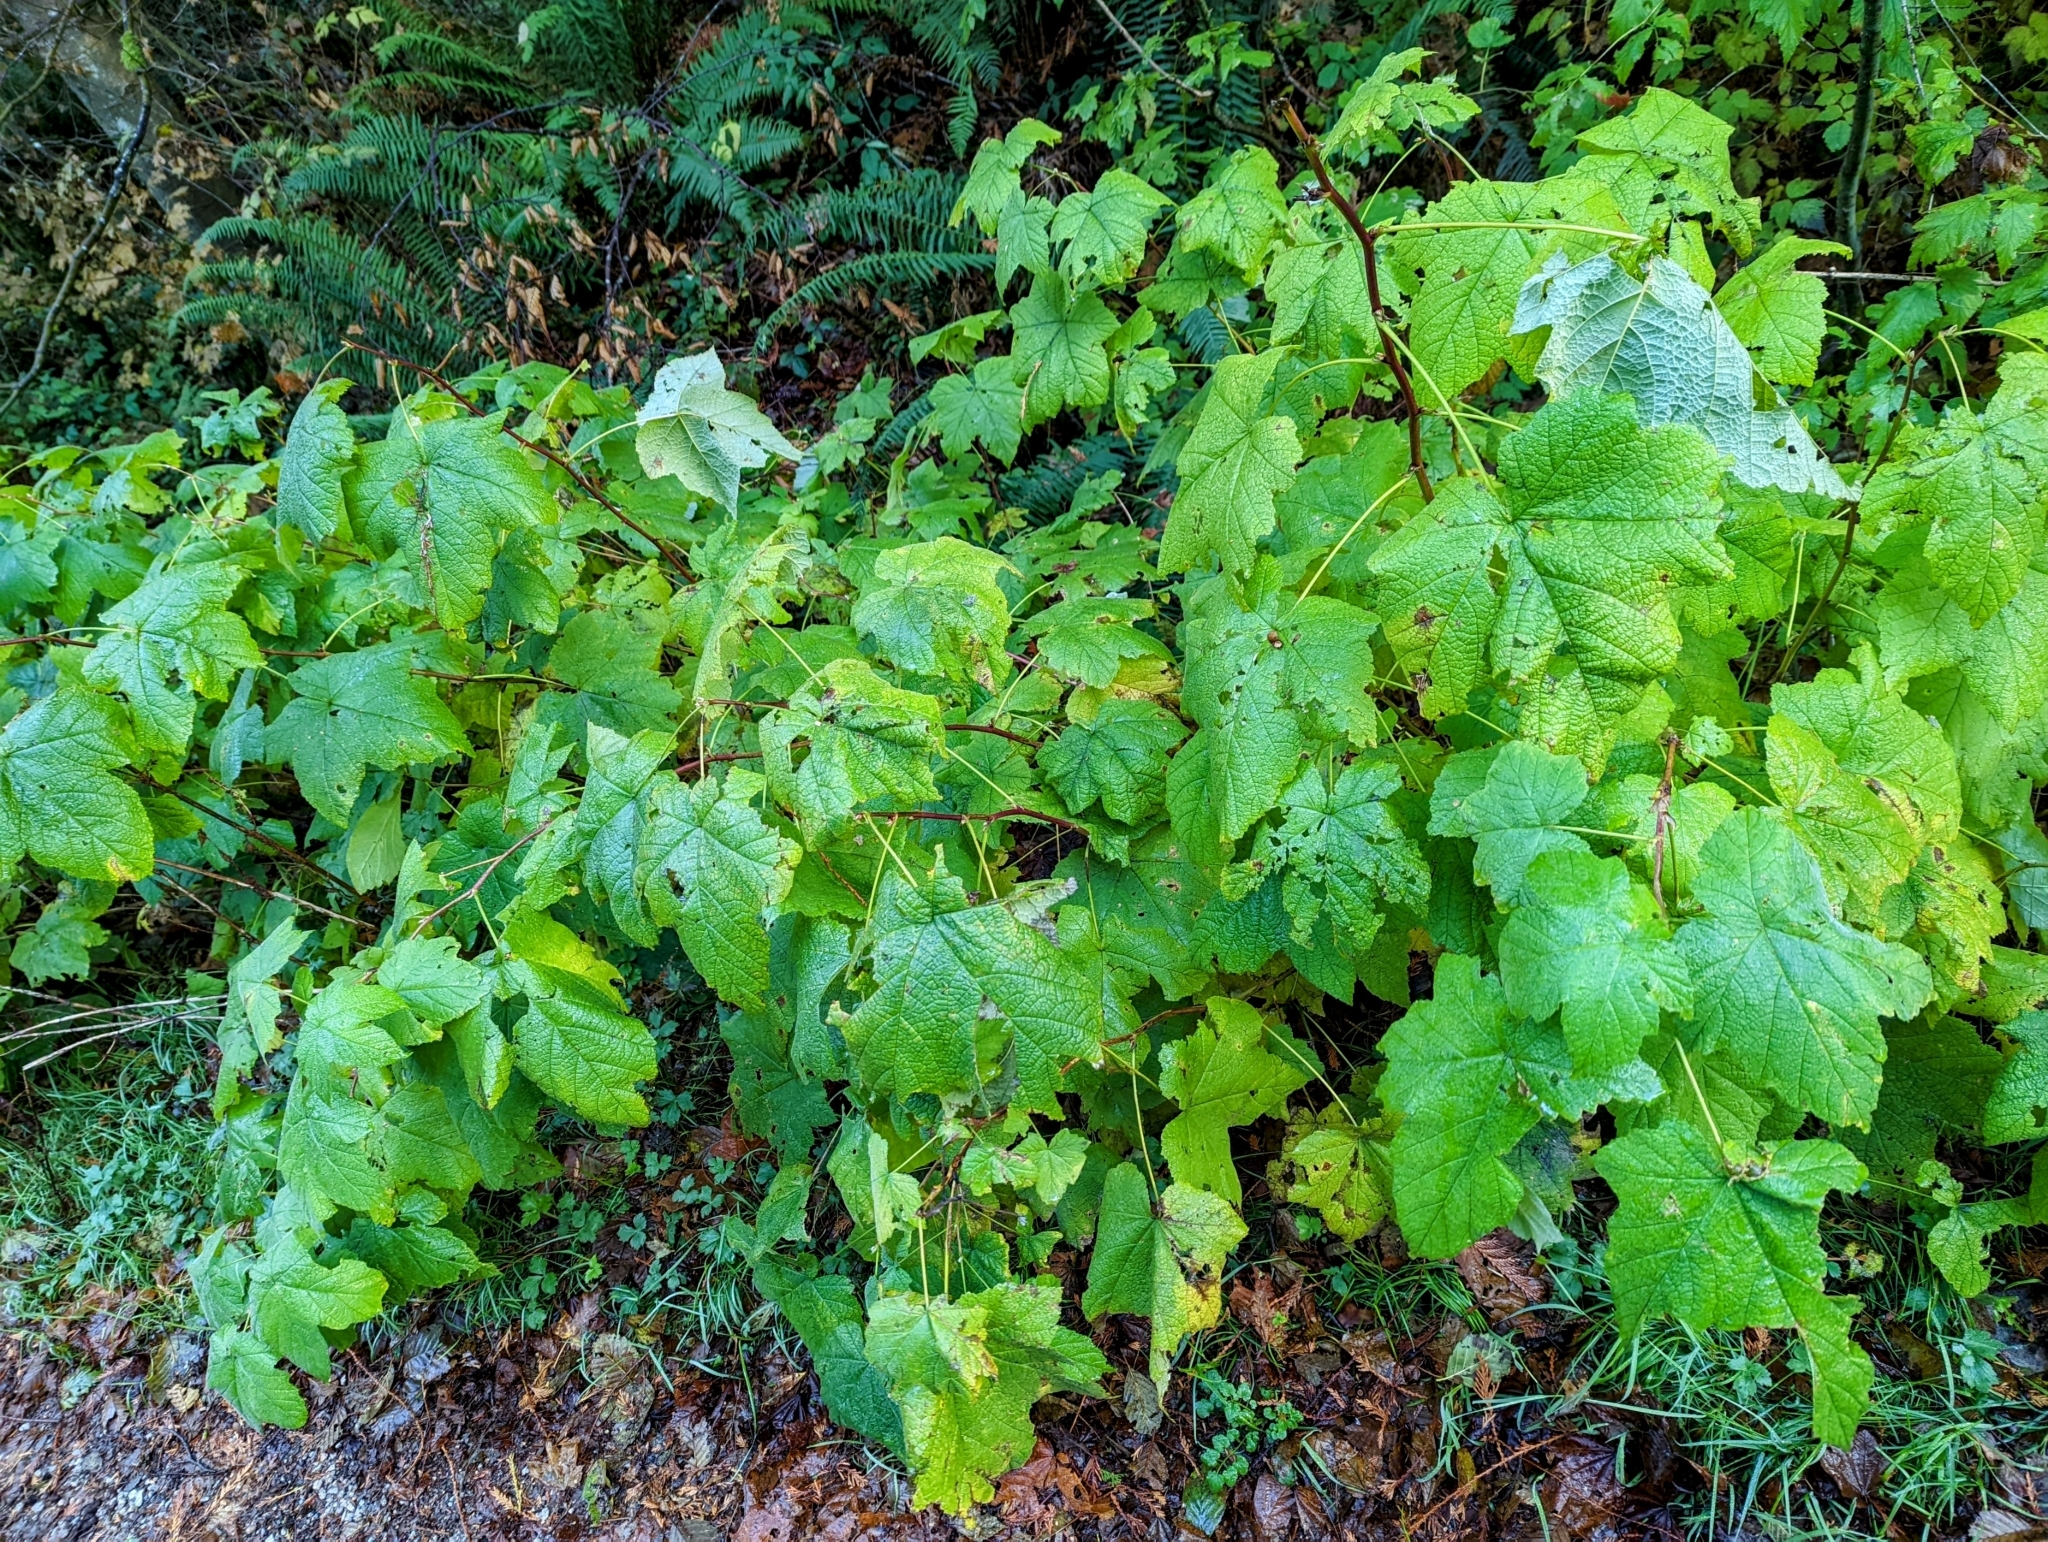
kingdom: Plantae
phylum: Tracheophyta
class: Magnoliopsida
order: Rosales
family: Rosaceae
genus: Rubus
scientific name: Rubus parviflorus
